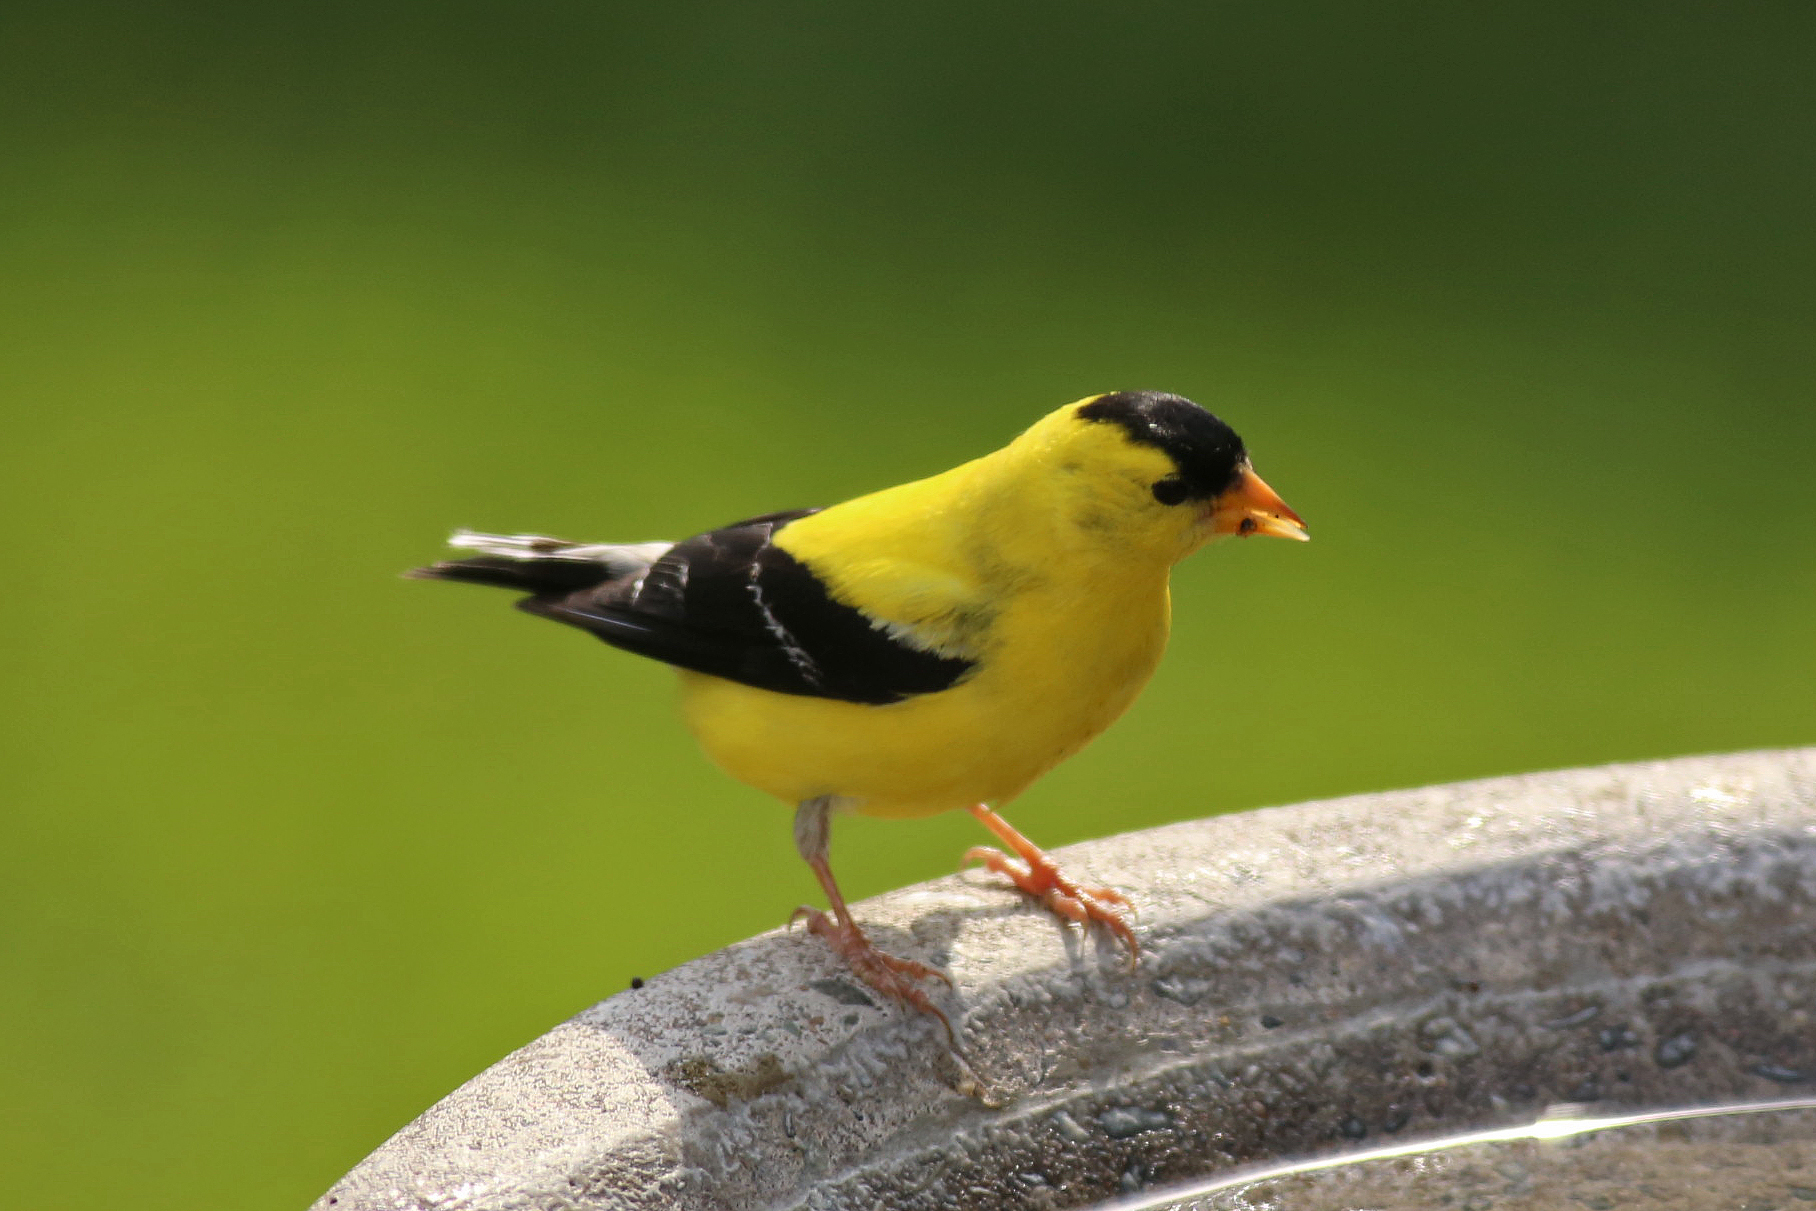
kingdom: Animalia
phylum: Chordata
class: Aves
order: Passeriformes
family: Fringillidae
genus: Spinus
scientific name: Spinus tristis
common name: American goldfinch
